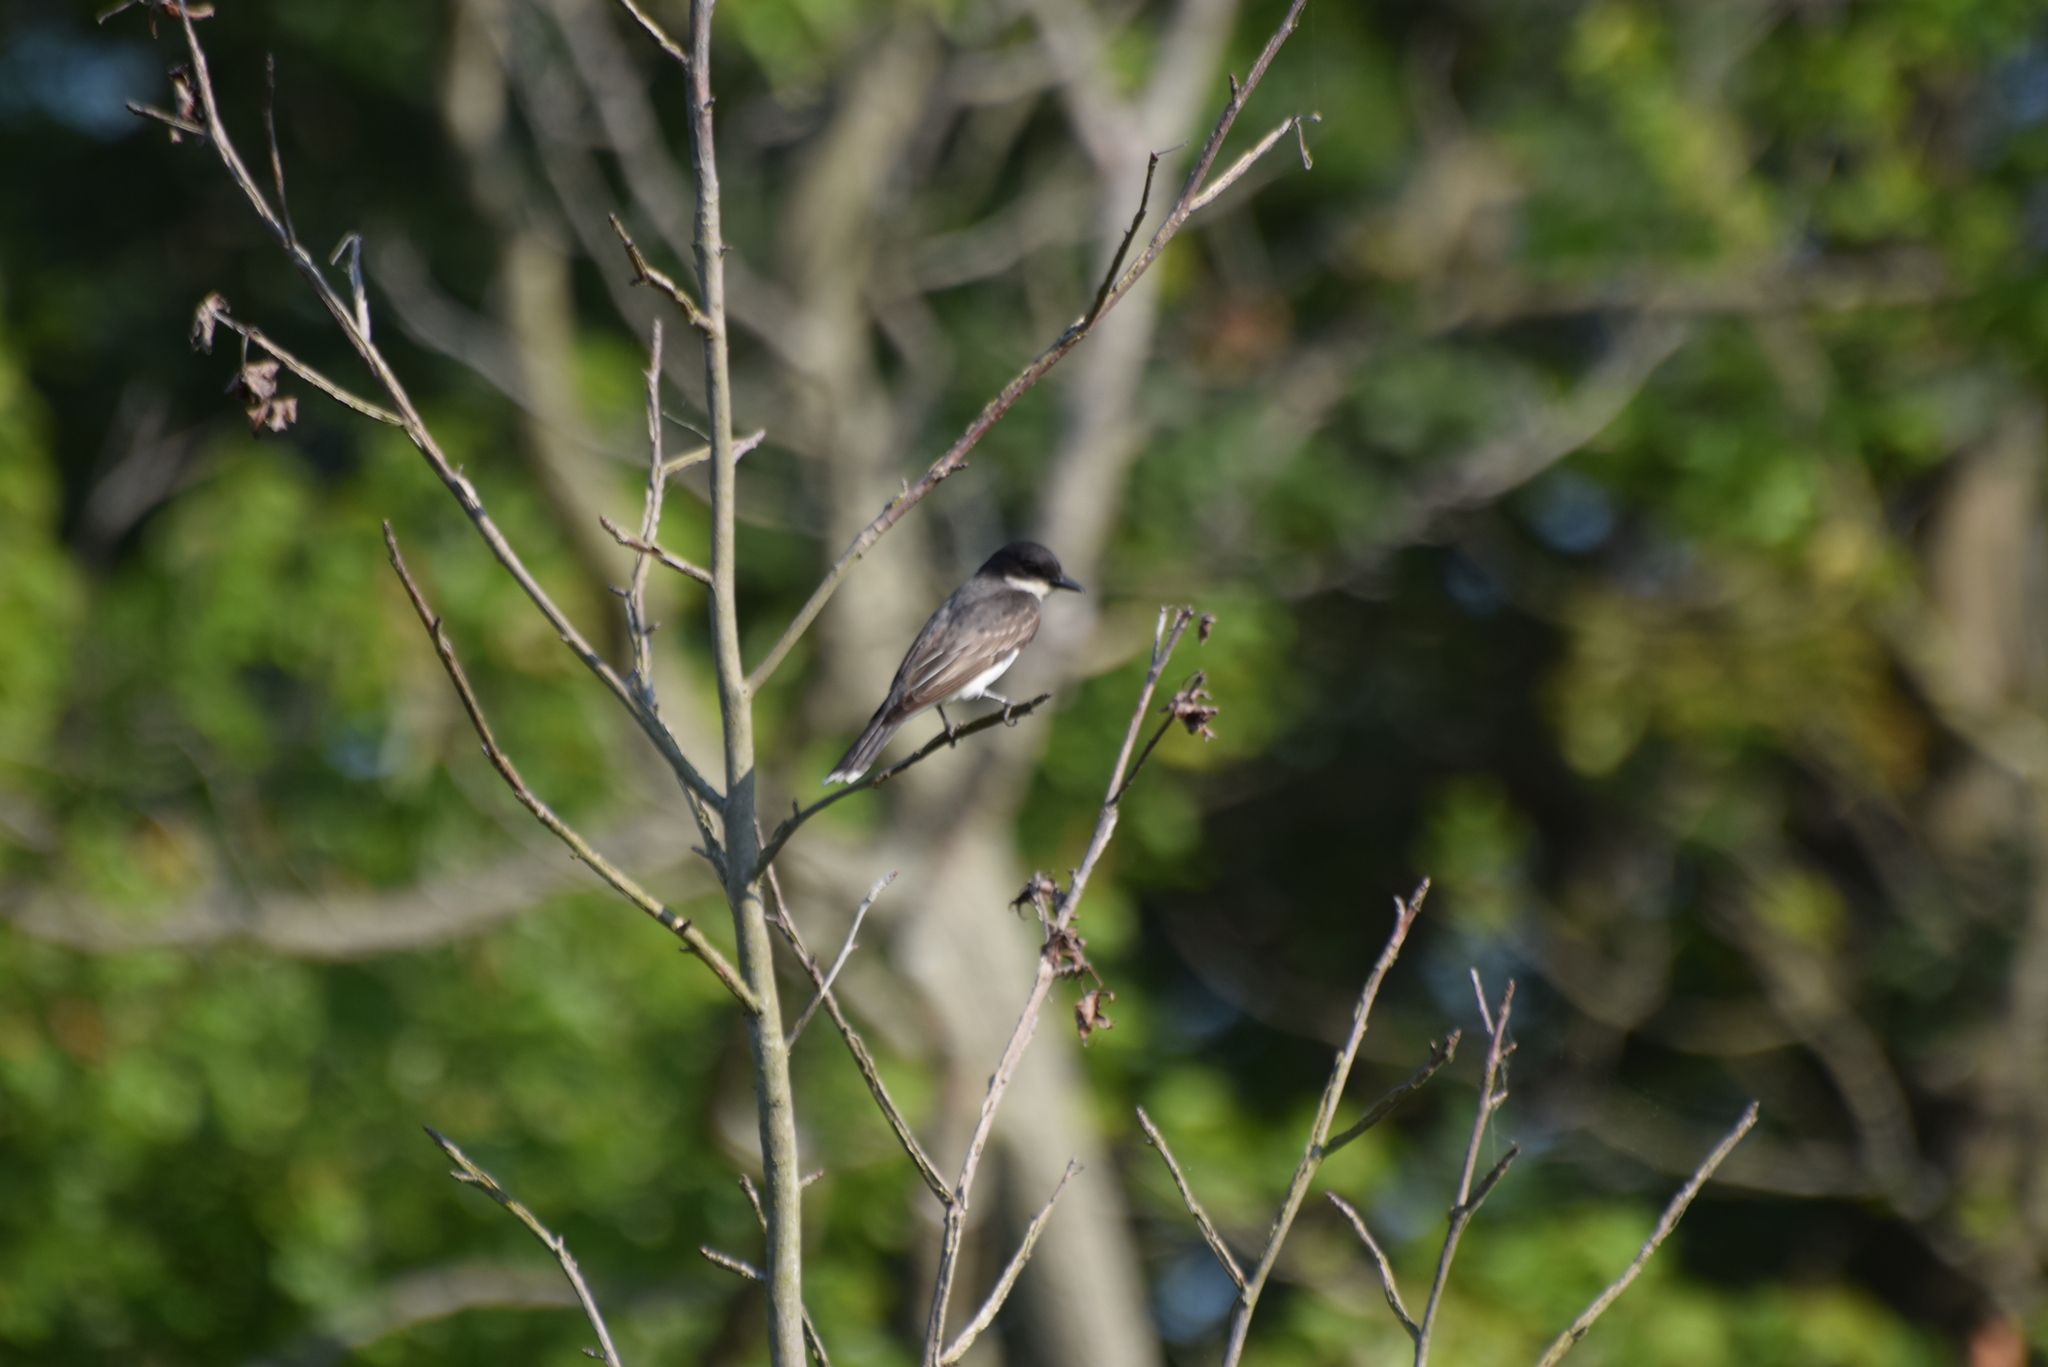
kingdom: Animalia
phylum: Chordata
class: Aves
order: Passeriformes
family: Tyrannidae
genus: Tyrannus
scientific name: Tyrannus tyrannus
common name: Eastern kingbird
